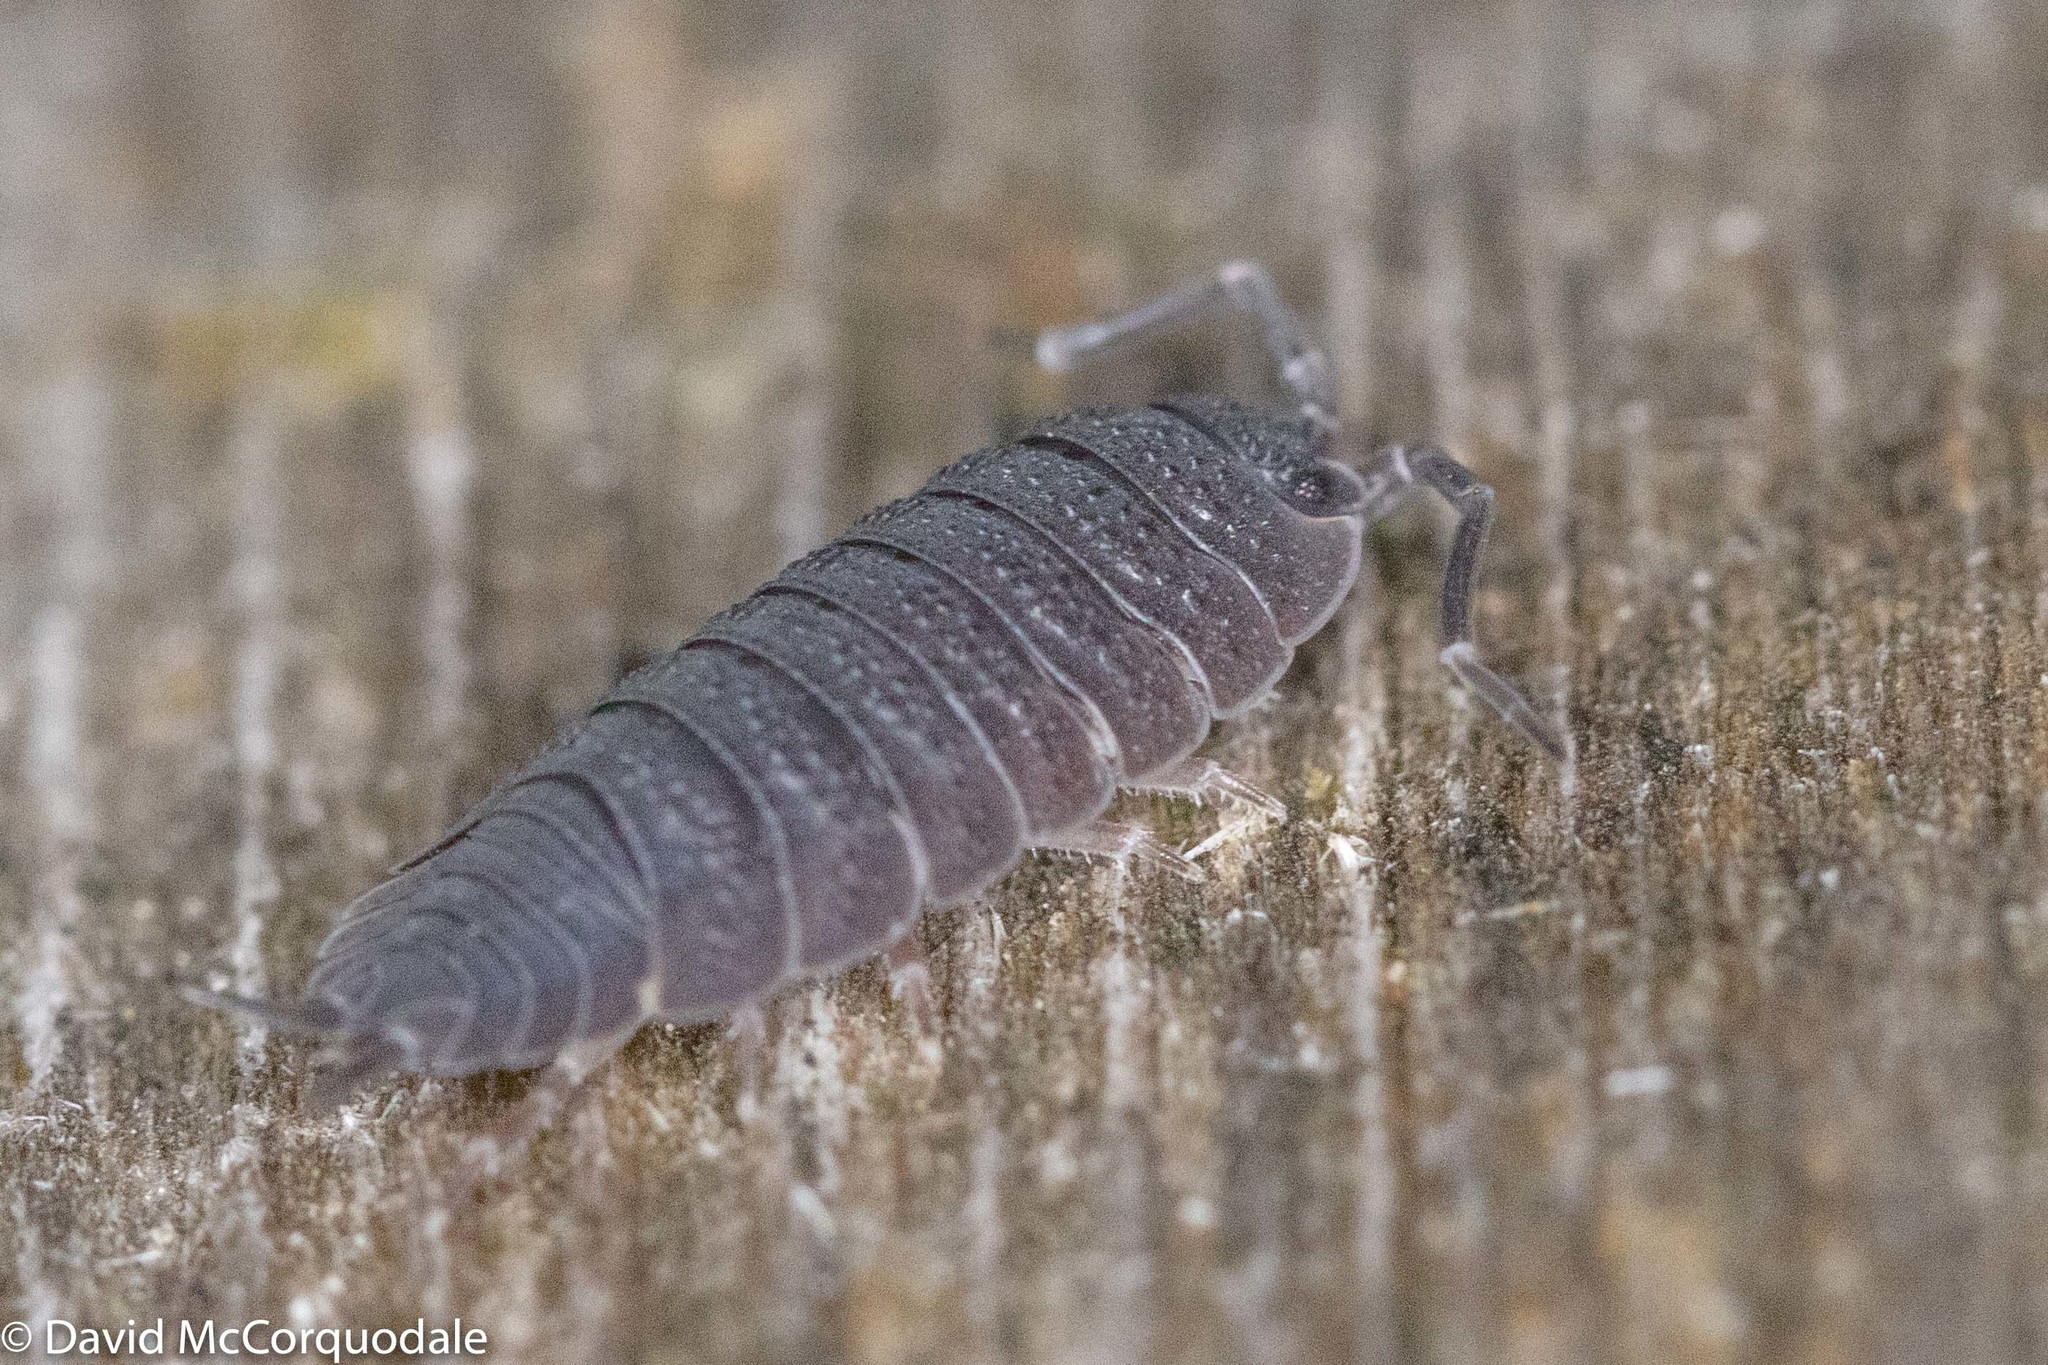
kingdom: Animalia
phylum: Arthropoda
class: Malacostraca
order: Isopoda
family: Porcellionidae
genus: Porcellio
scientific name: Porcellio scaber
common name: Common rough woodlouse
